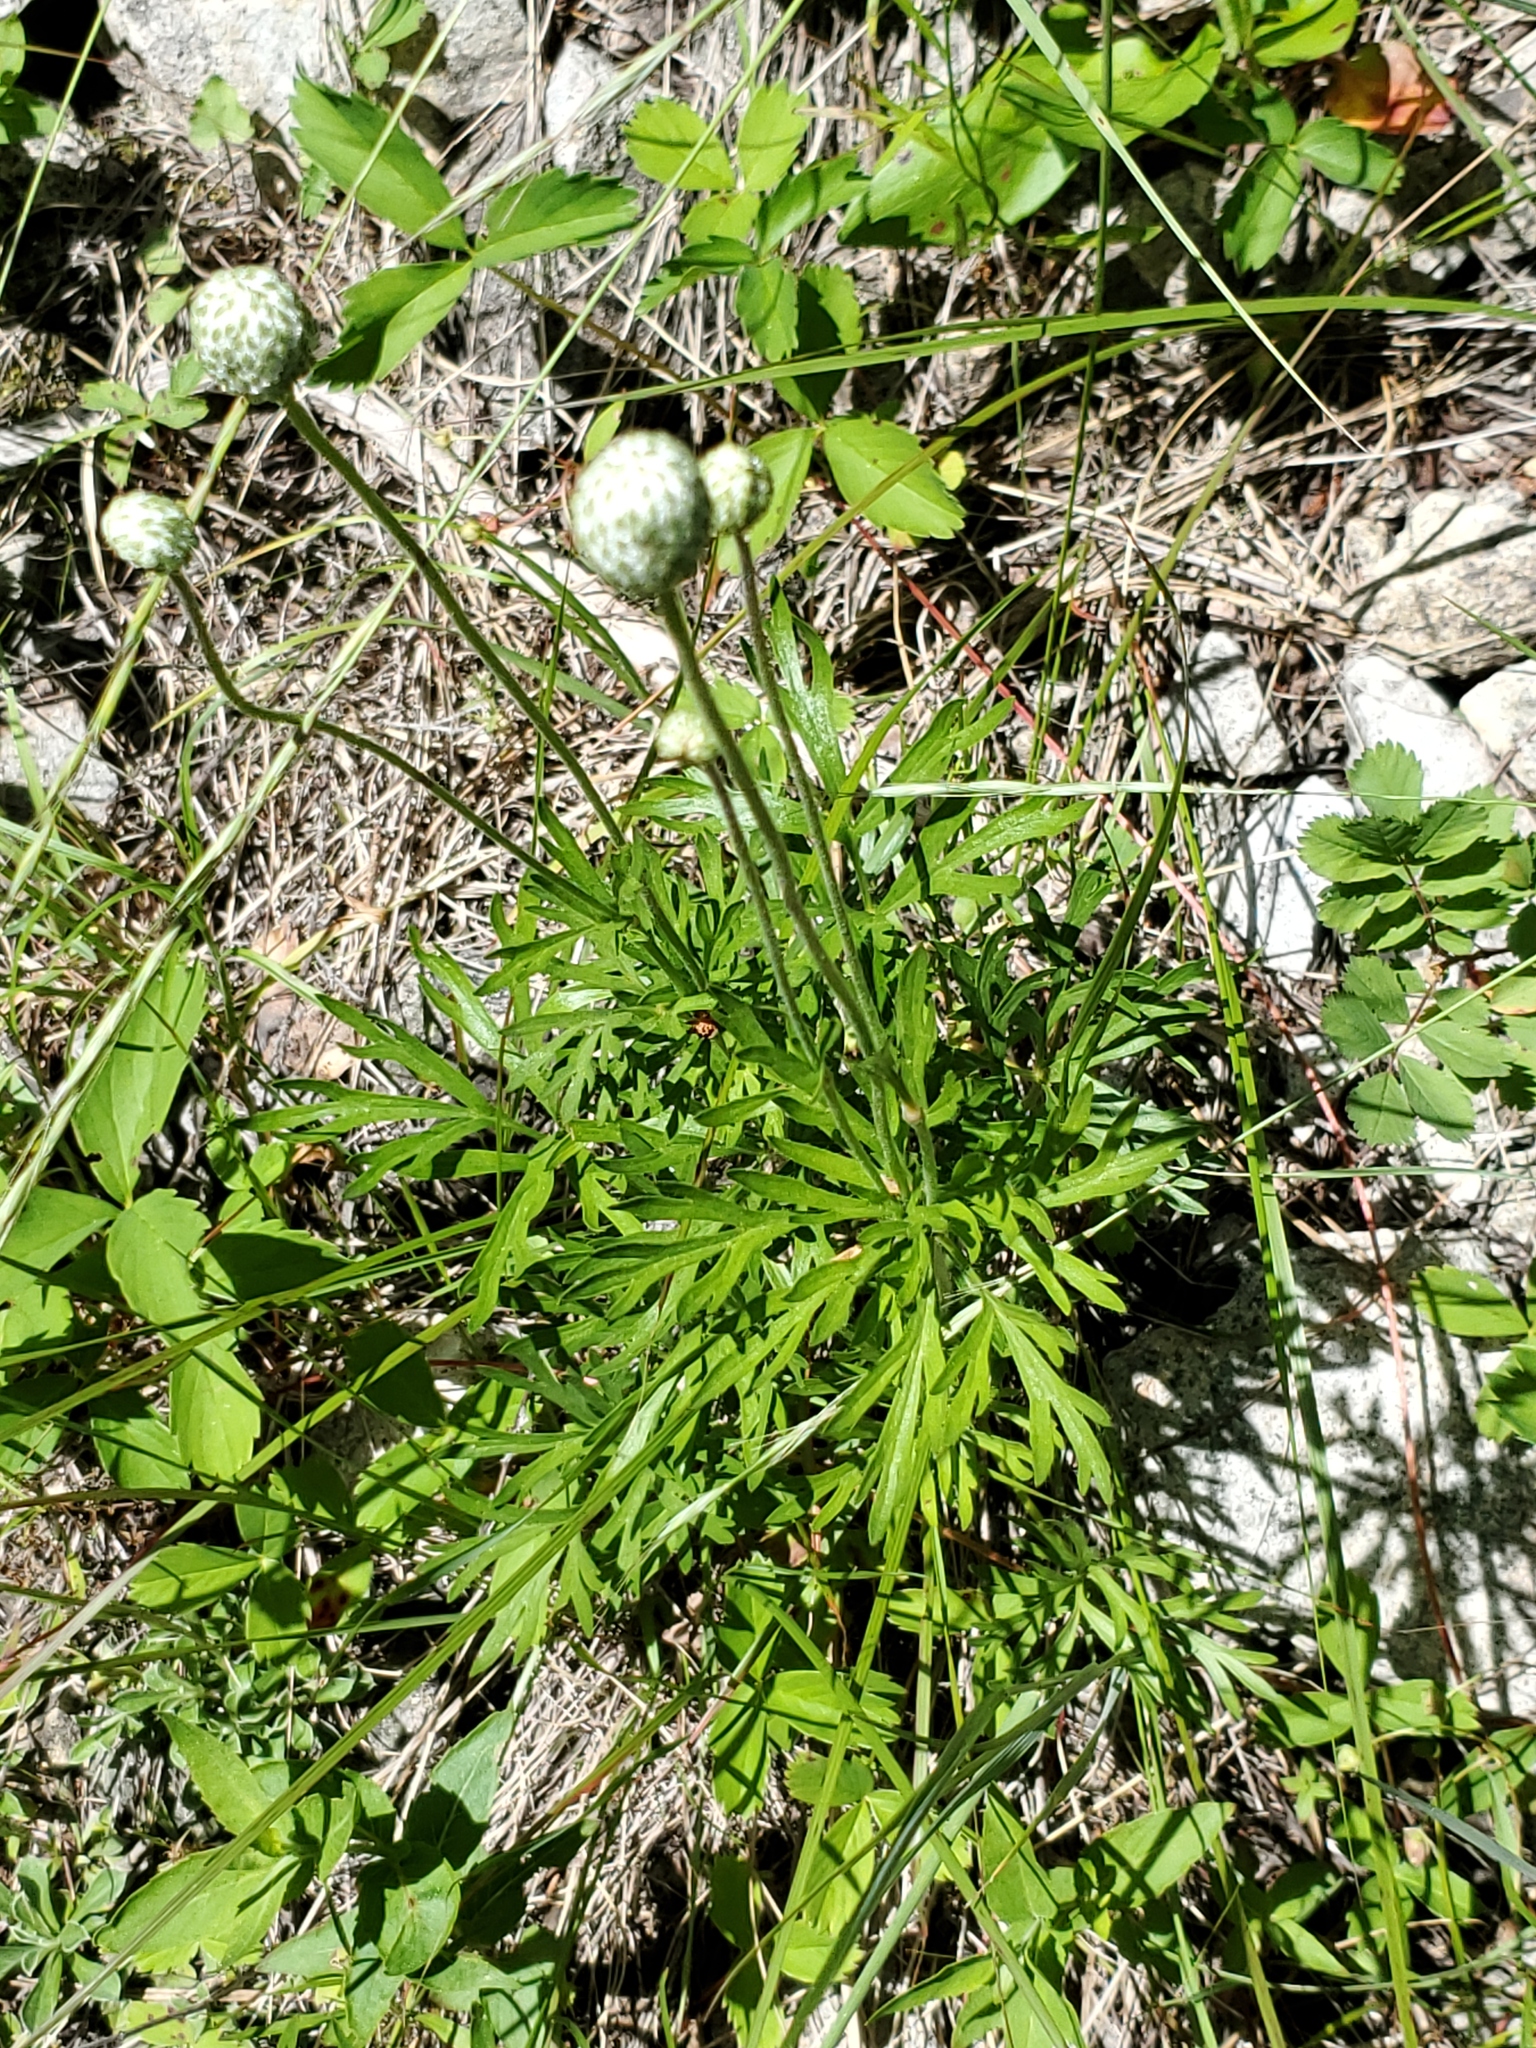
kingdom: Plantae
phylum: Tracheophyta
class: Magnoliopsida
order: Ranunculales
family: Ranunculaceae
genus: Anemone
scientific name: Anemone multifida
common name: Bird's-foot anemone
